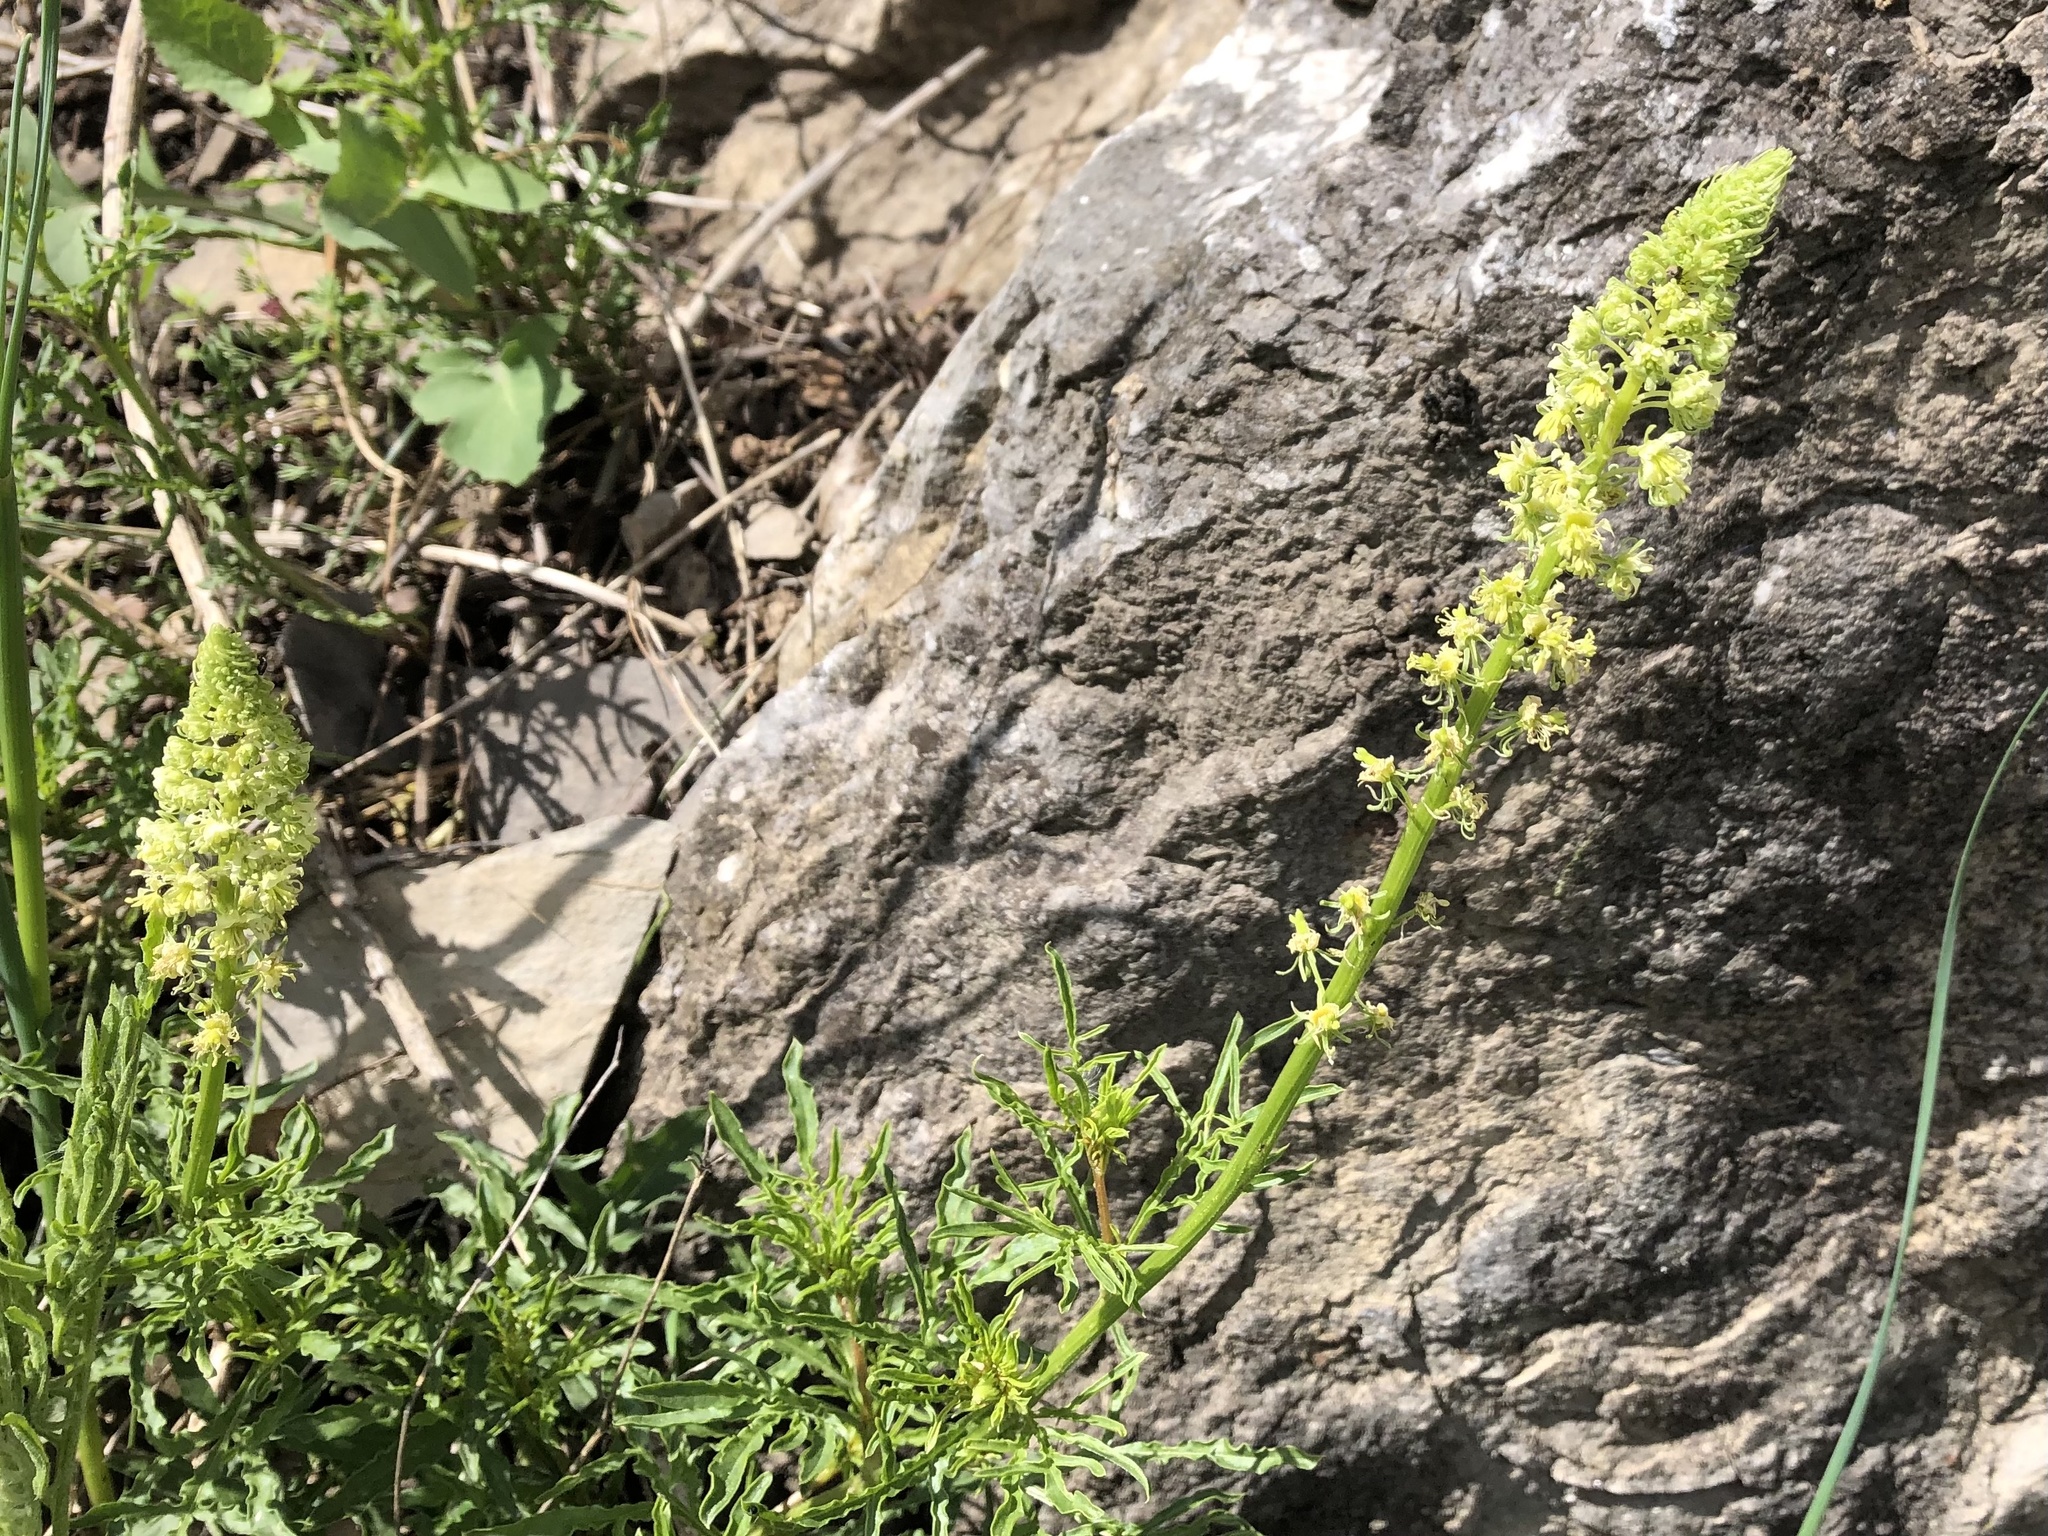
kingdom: Plantae
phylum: Tracheophyta
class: Magnoliopsida
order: Brassicales
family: Resedaceae
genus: Reseda
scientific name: Reseda lutea
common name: Wild mignonette
